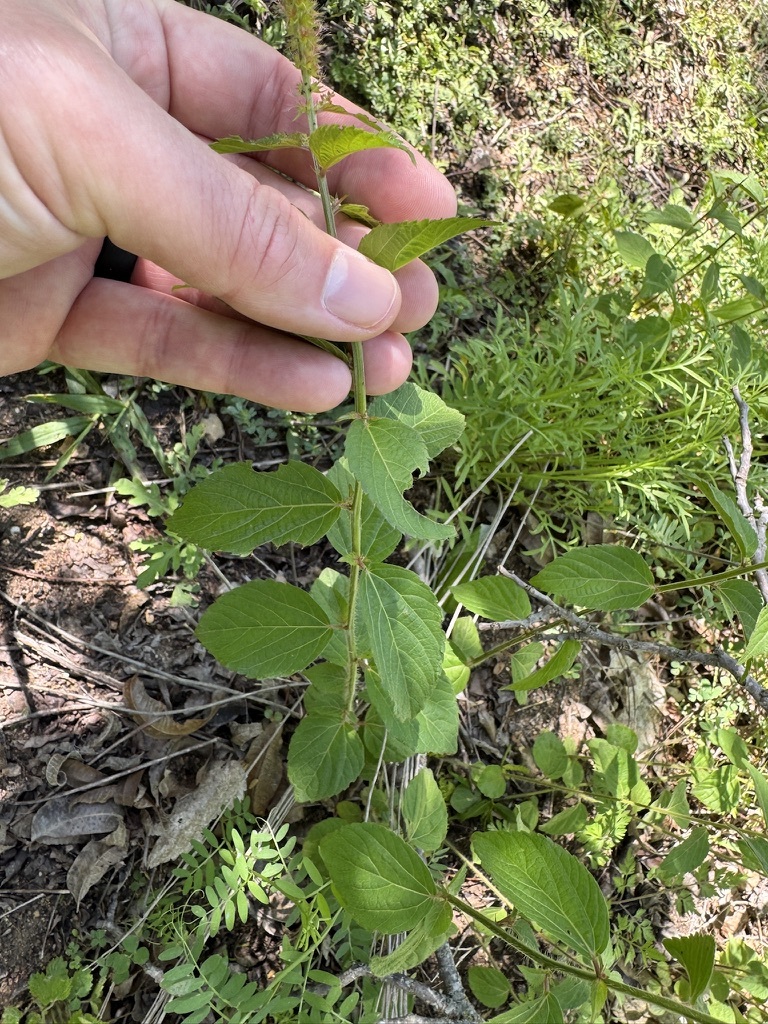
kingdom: Plantae
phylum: Tracheophyta
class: Magnoliopsida
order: Malpighiales
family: Euphorbiaceae
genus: Acalypha
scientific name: Acalypha phleoides
